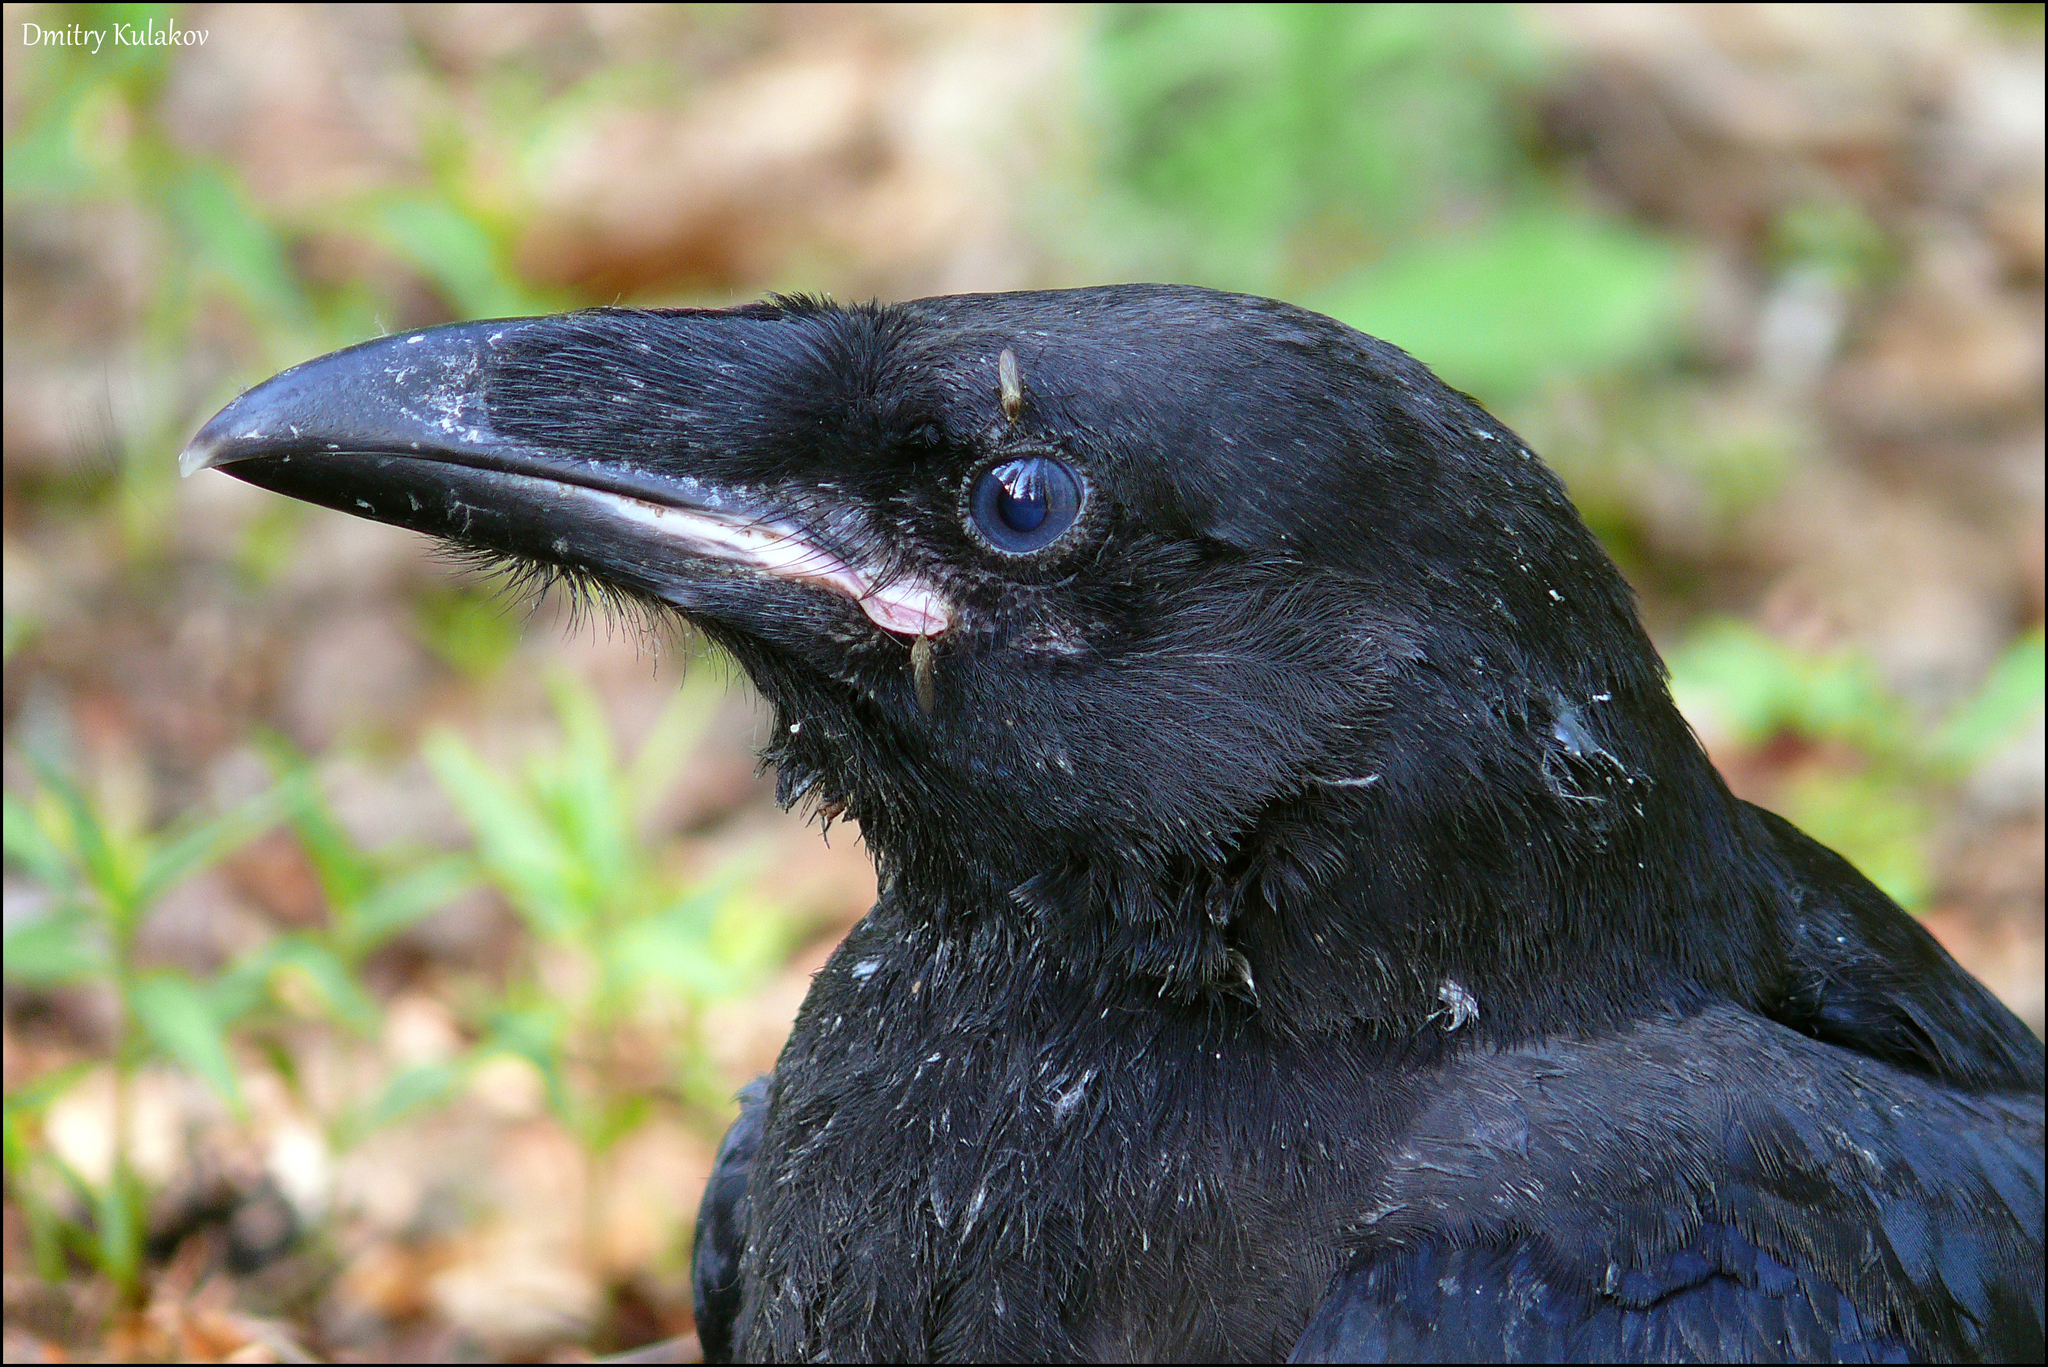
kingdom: Animalia
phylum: Chordata
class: Aves
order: Passeriformes
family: Corvidae
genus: Corvus
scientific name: Corvus corax
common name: Common raven
